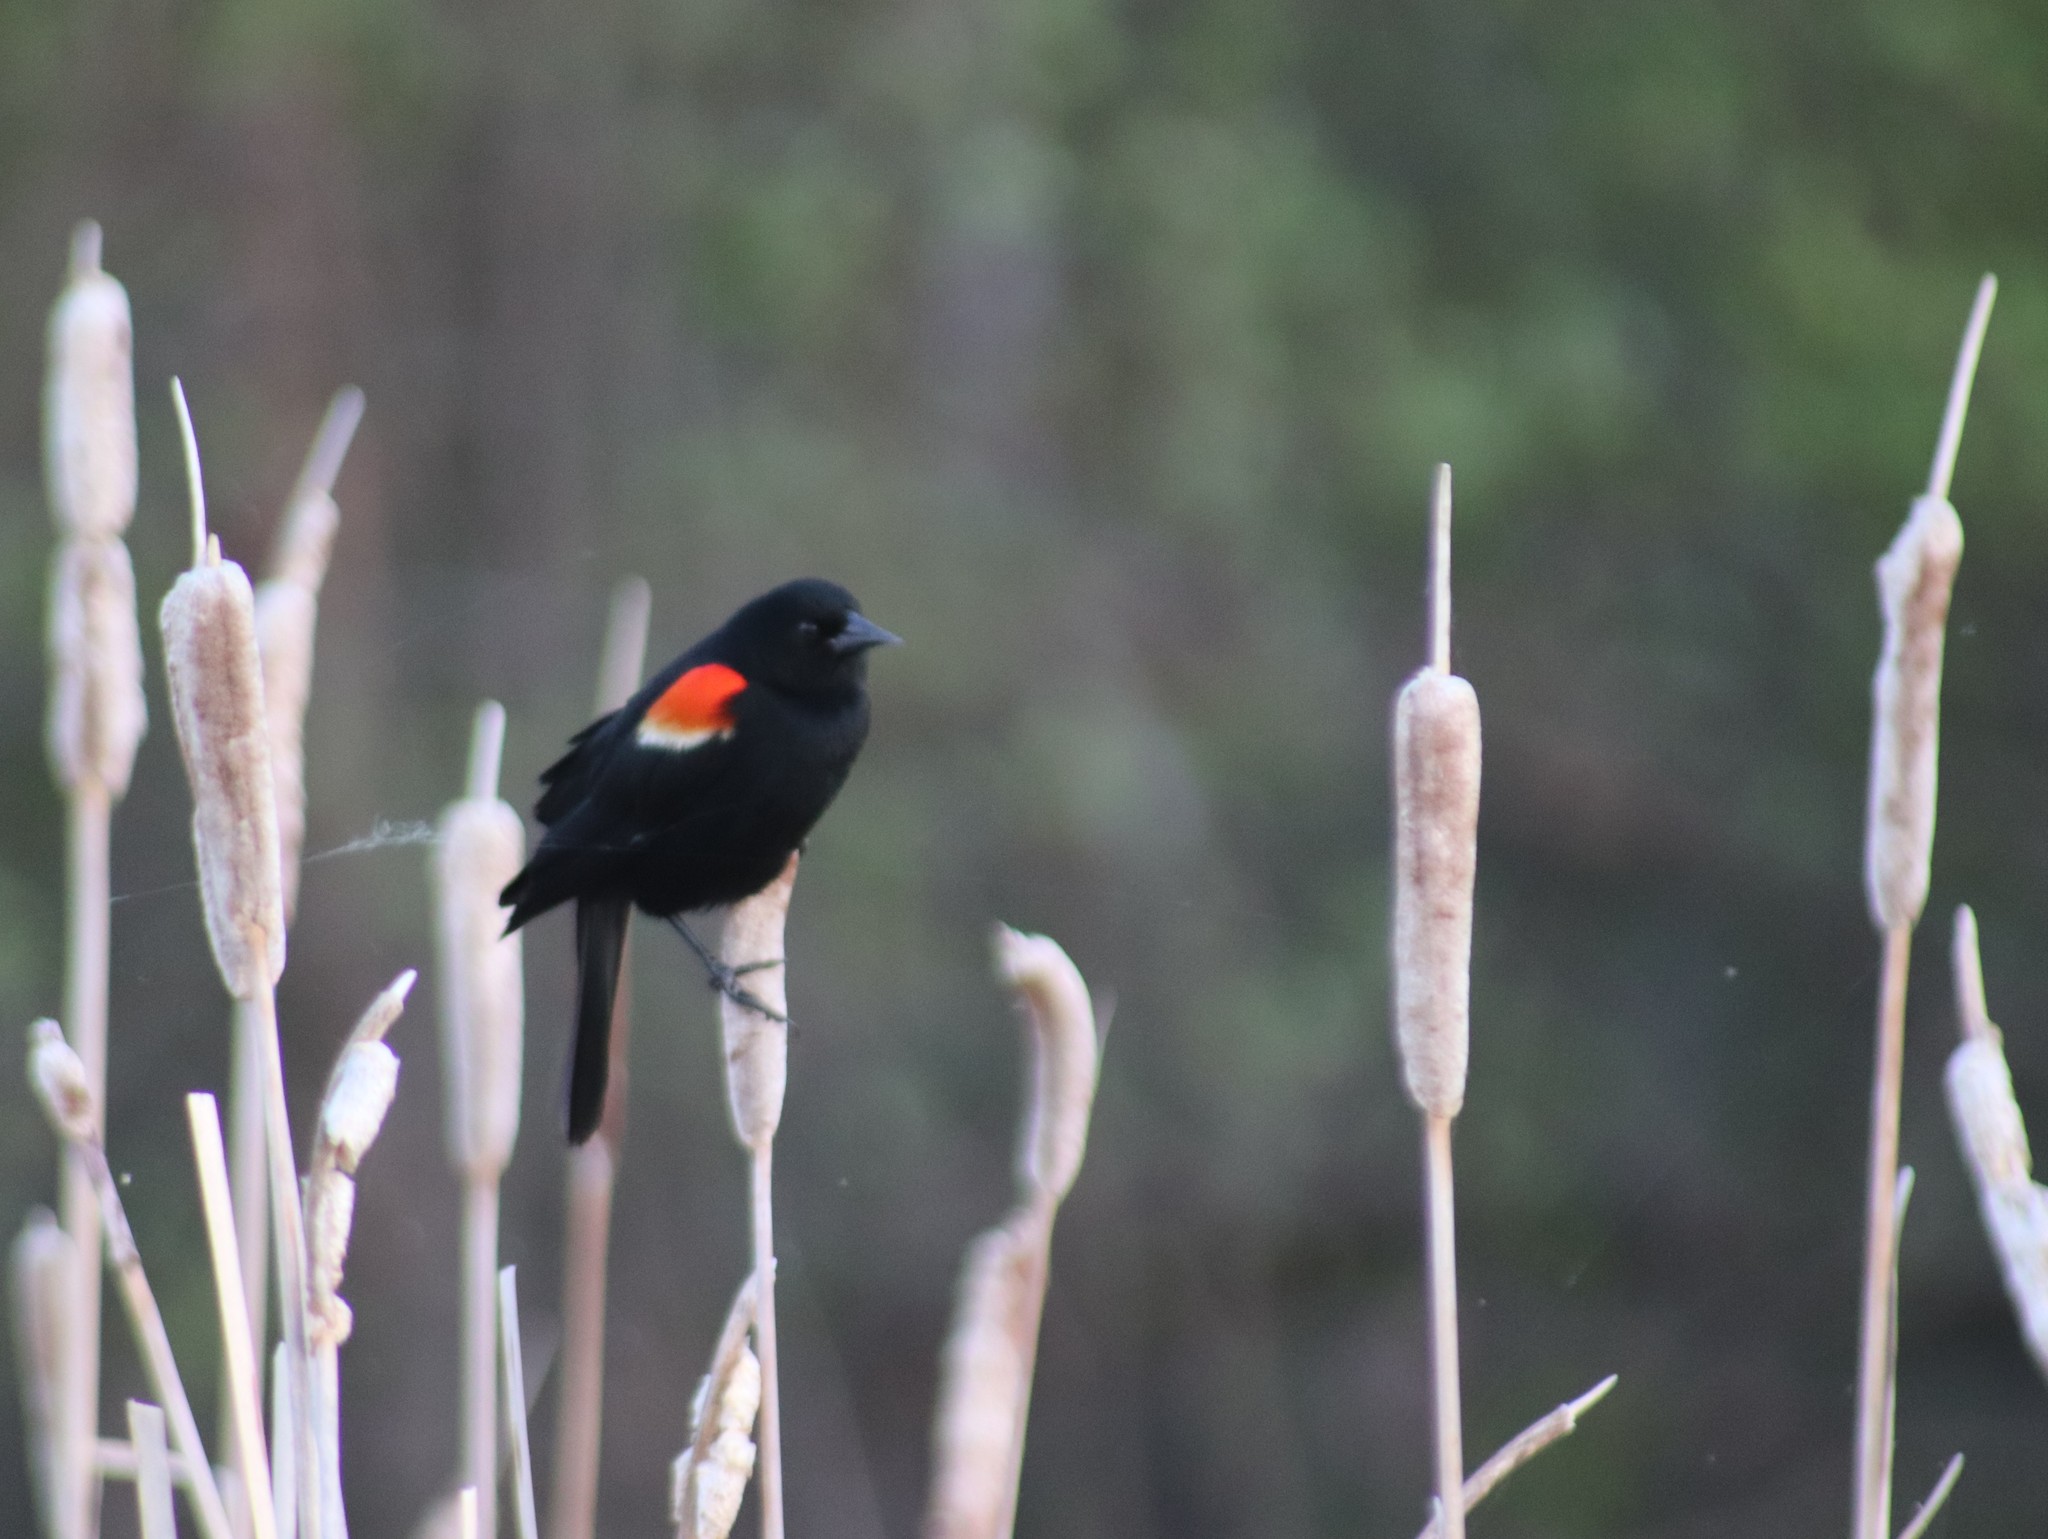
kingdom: Animalia
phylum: Chordata
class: Aves
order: Passeriformes
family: Icteridae
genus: Agelaius
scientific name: Agelaius phoeniceus
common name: Red-winged blackbird
